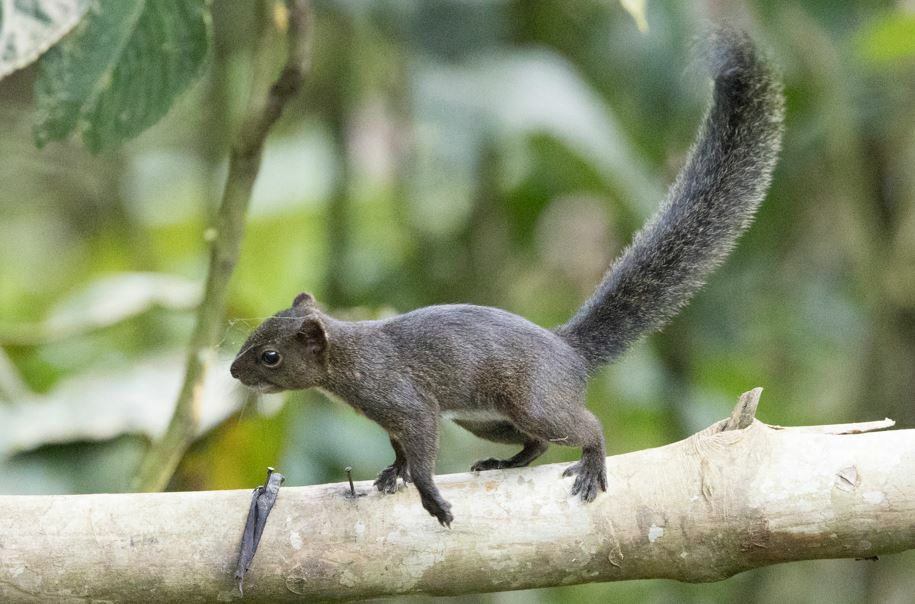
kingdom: Animalia
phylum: Chordata
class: Mammalia
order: Rodentia
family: Sciuridae
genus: Sciurus
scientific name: Sciurus ignitus
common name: Bolivian squirrel
